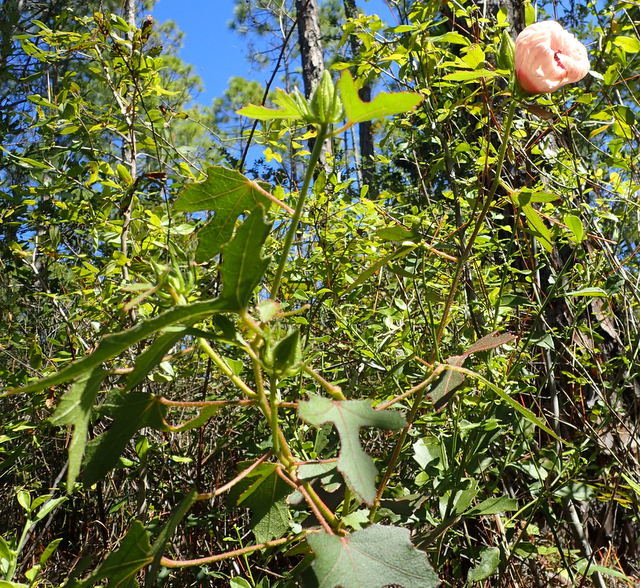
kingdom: Plantae
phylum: Tracheophyta
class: Magnoliopsida
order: Malvales
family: Malvaceae
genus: Hibiscus
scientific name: Hibiscus aculeatus
